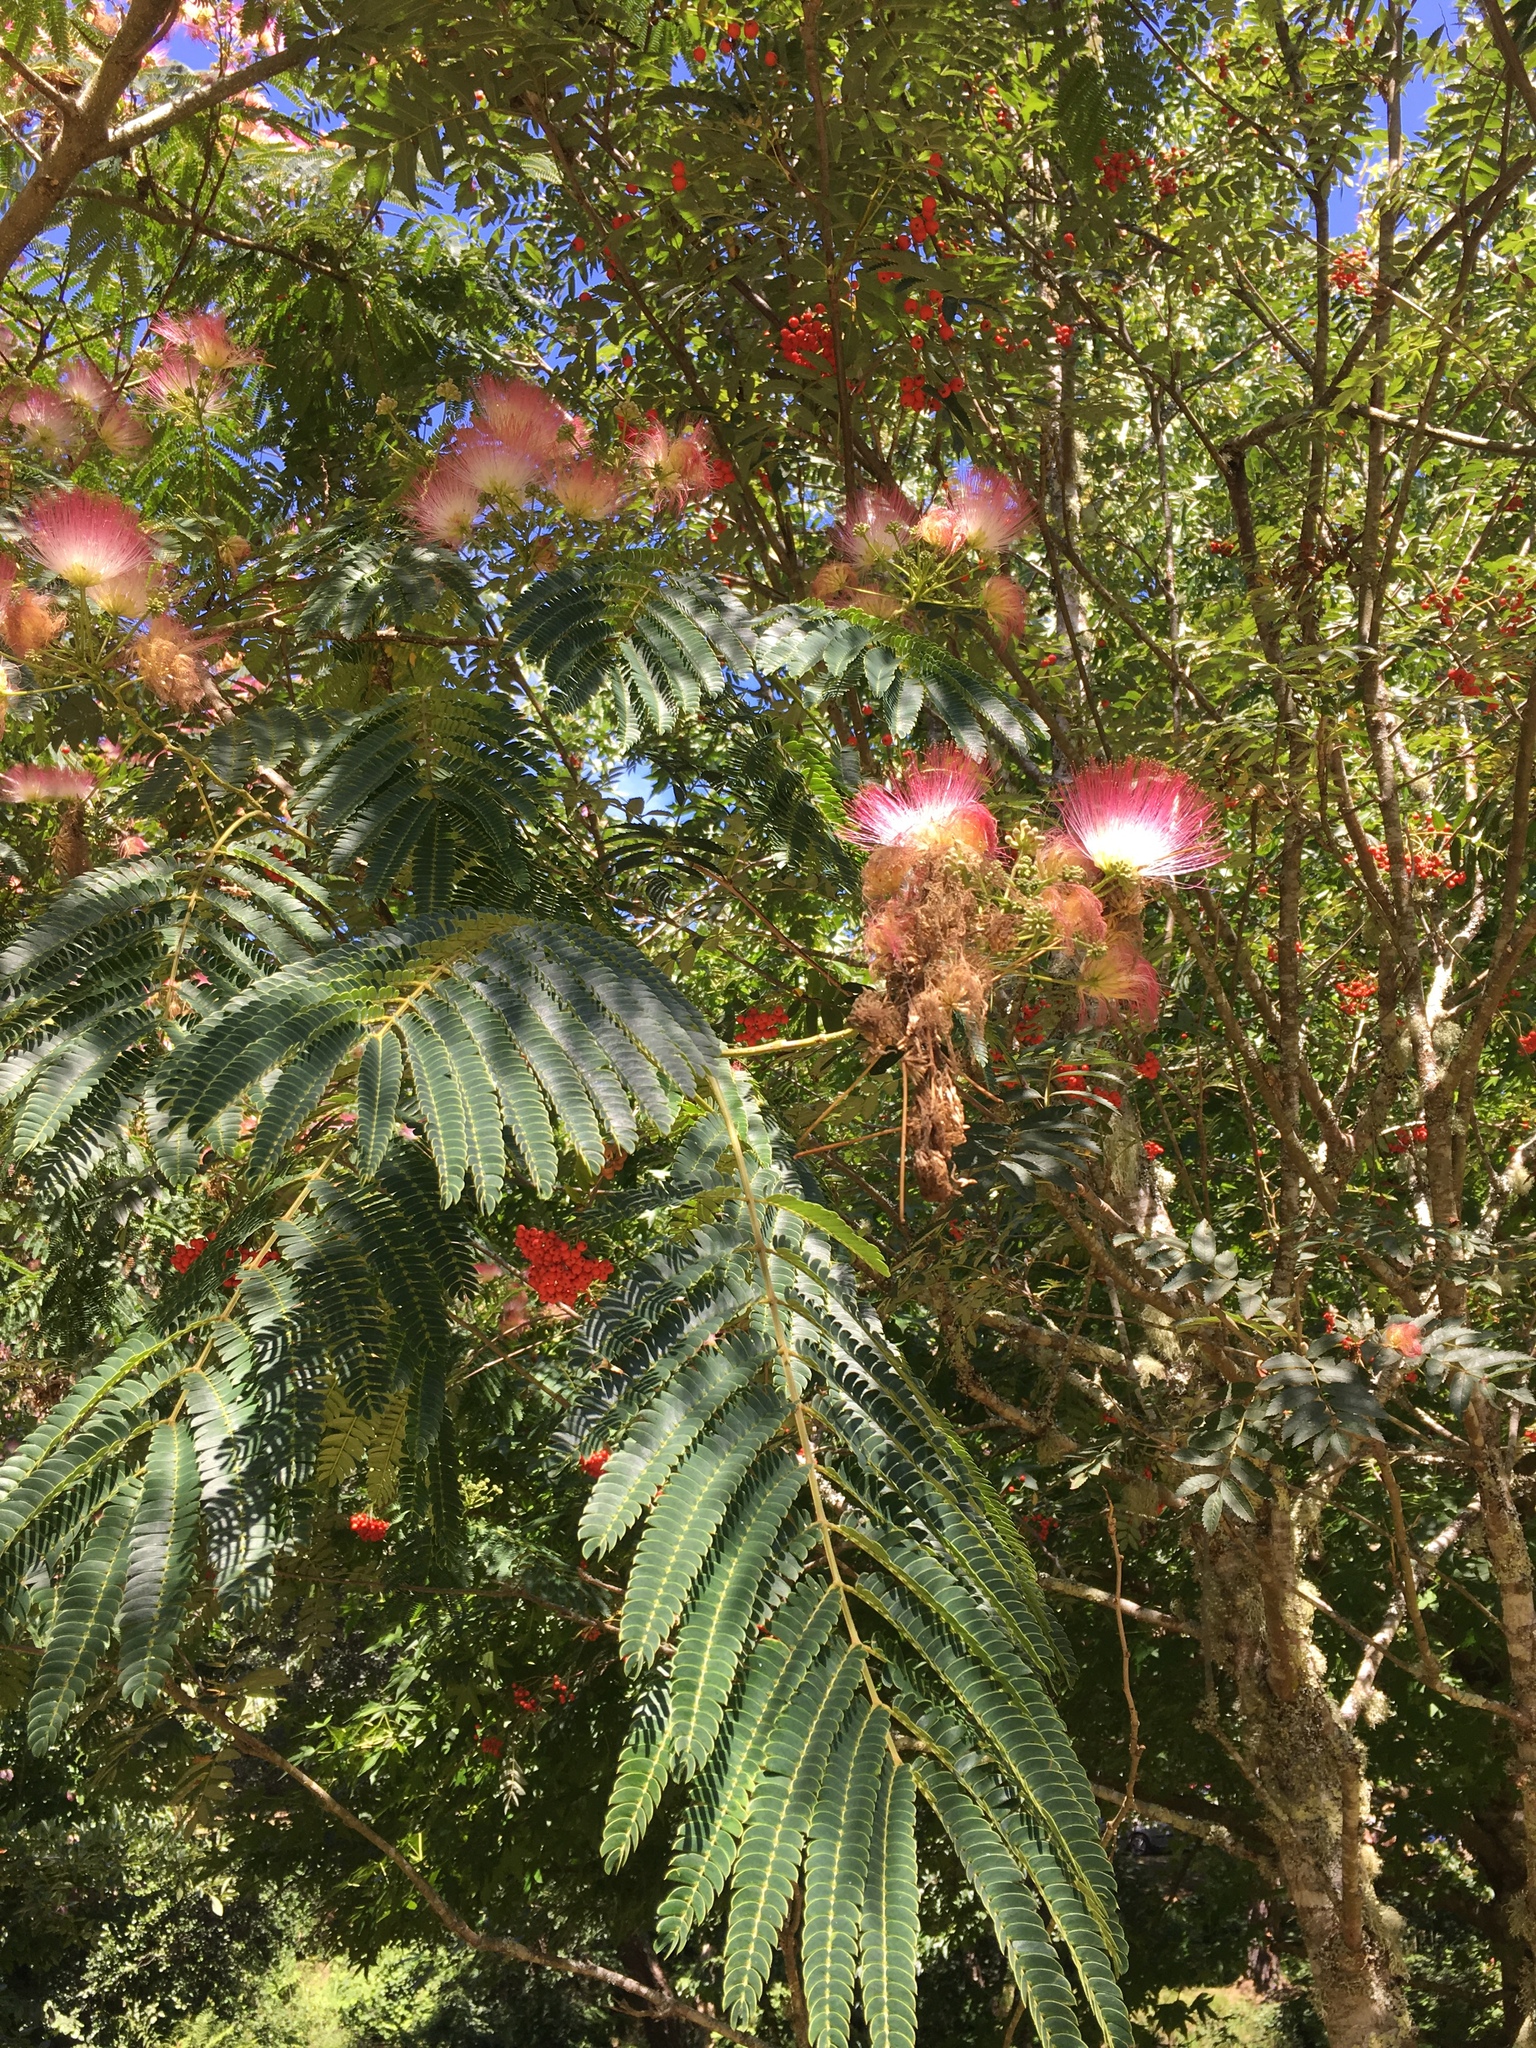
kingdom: Plantae
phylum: Tracheophyta
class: Magnoliopsida
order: Fabales
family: Fabaceae
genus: Albizia
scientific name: Albizia julibrissin
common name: Silktree
